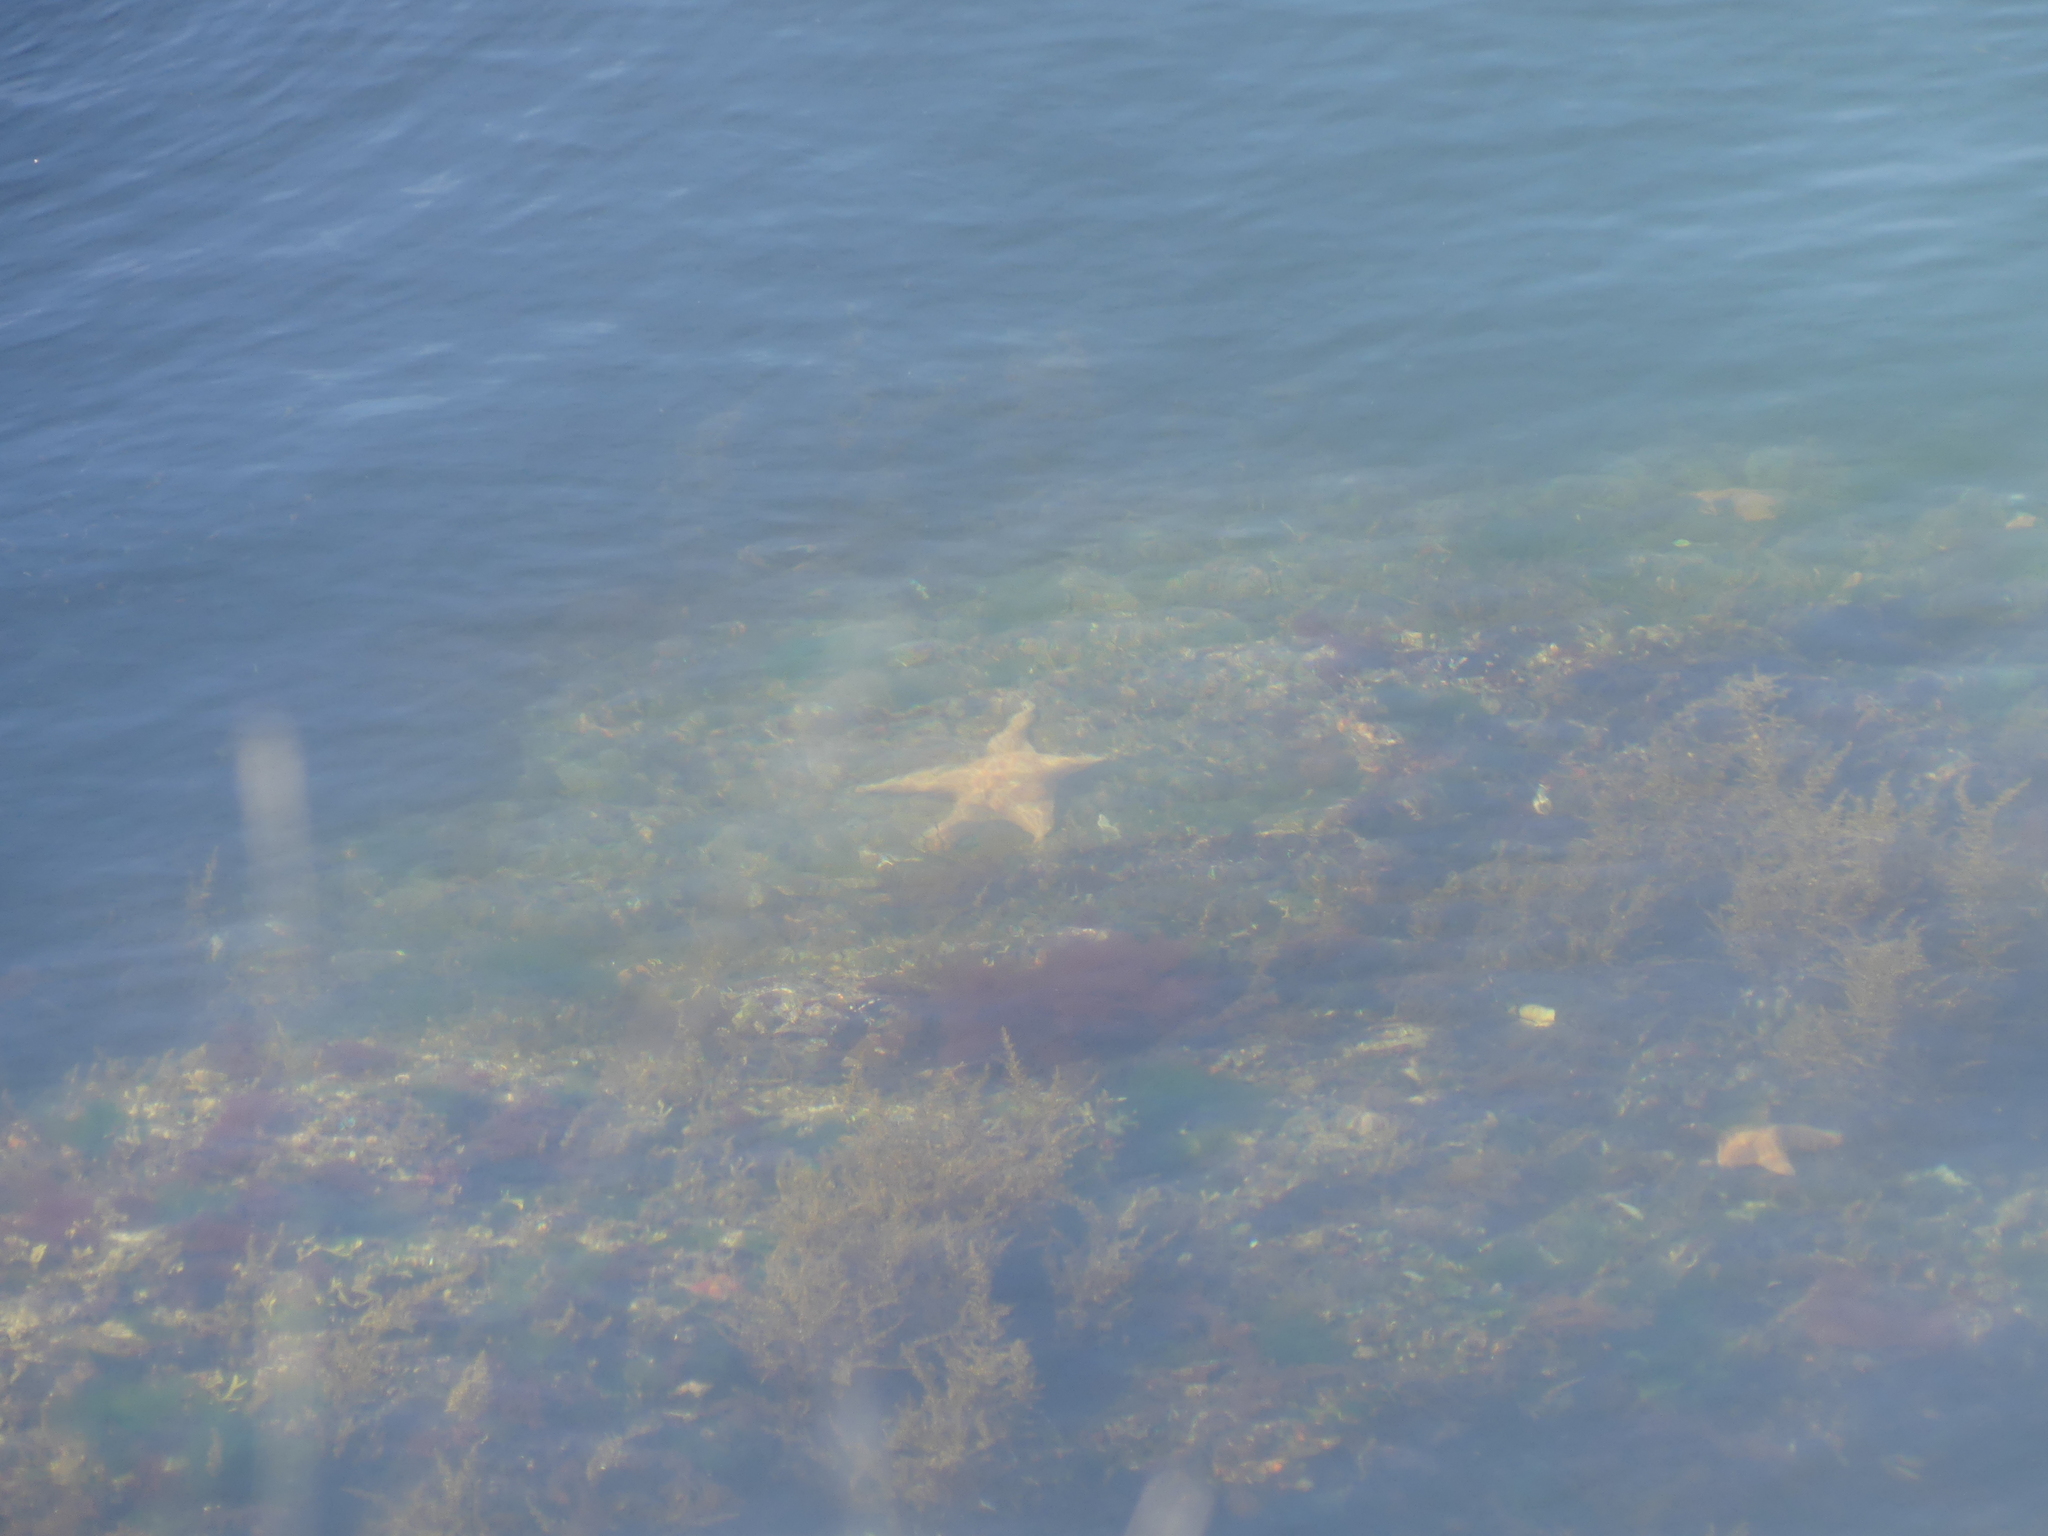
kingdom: Animalia
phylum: Echinodermata
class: Asteroidea
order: Valvatida
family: Asteropseidae
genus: Dermasterias
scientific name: Dermasterias imbricata
